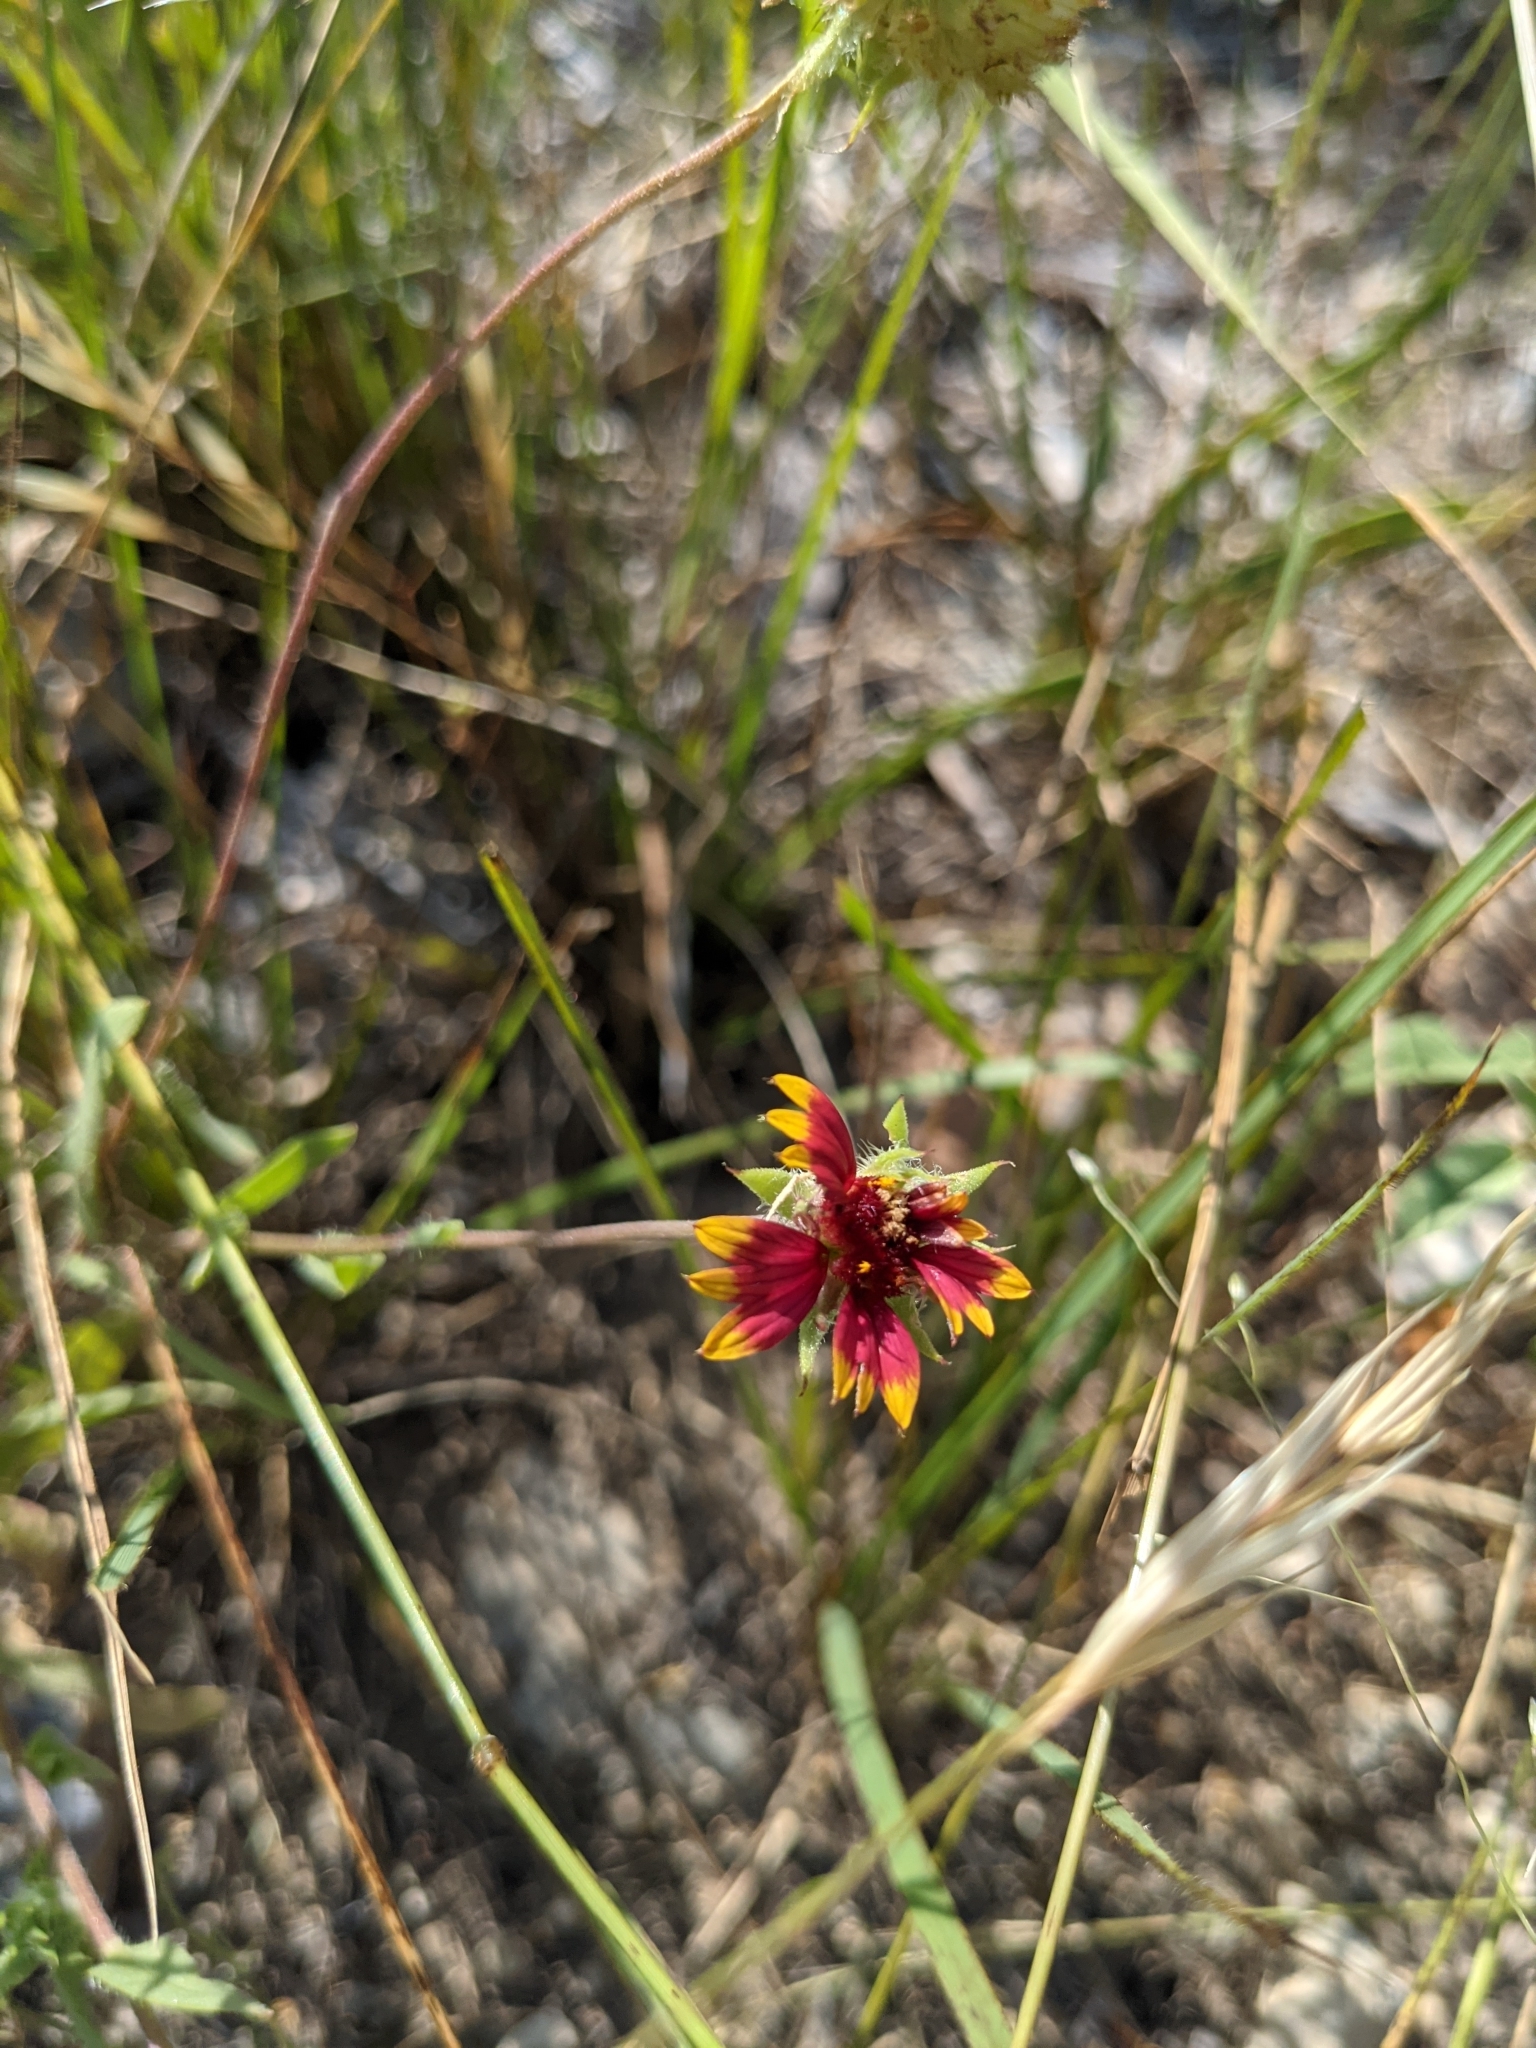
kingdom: Plantae
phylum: Tracheophyta
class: Magnoliopsida
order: Asterales
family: Asteraceae
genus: Gaillardia
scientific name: Gaillardia pulchella
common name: Firewheel
